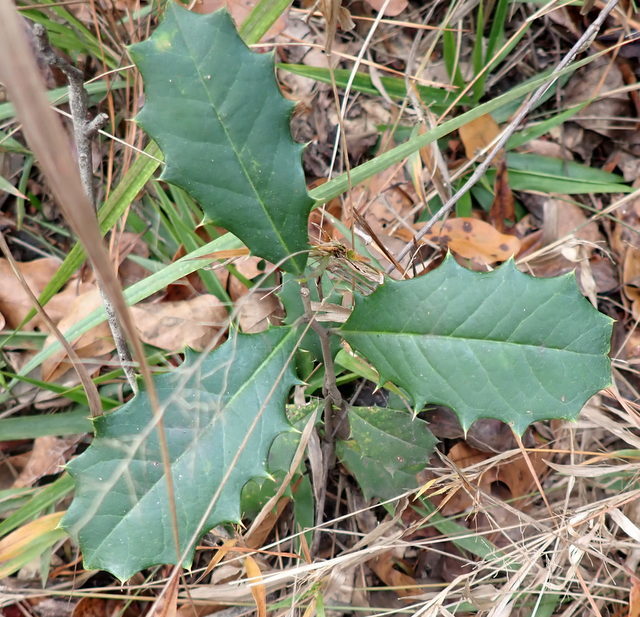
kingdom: Plantae
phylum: Tracheophyta
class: Magnoliopsida
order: Aquifoliales
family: Aquifoliaceae
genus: Ilex
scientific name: Ilex opaca
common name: American holly
